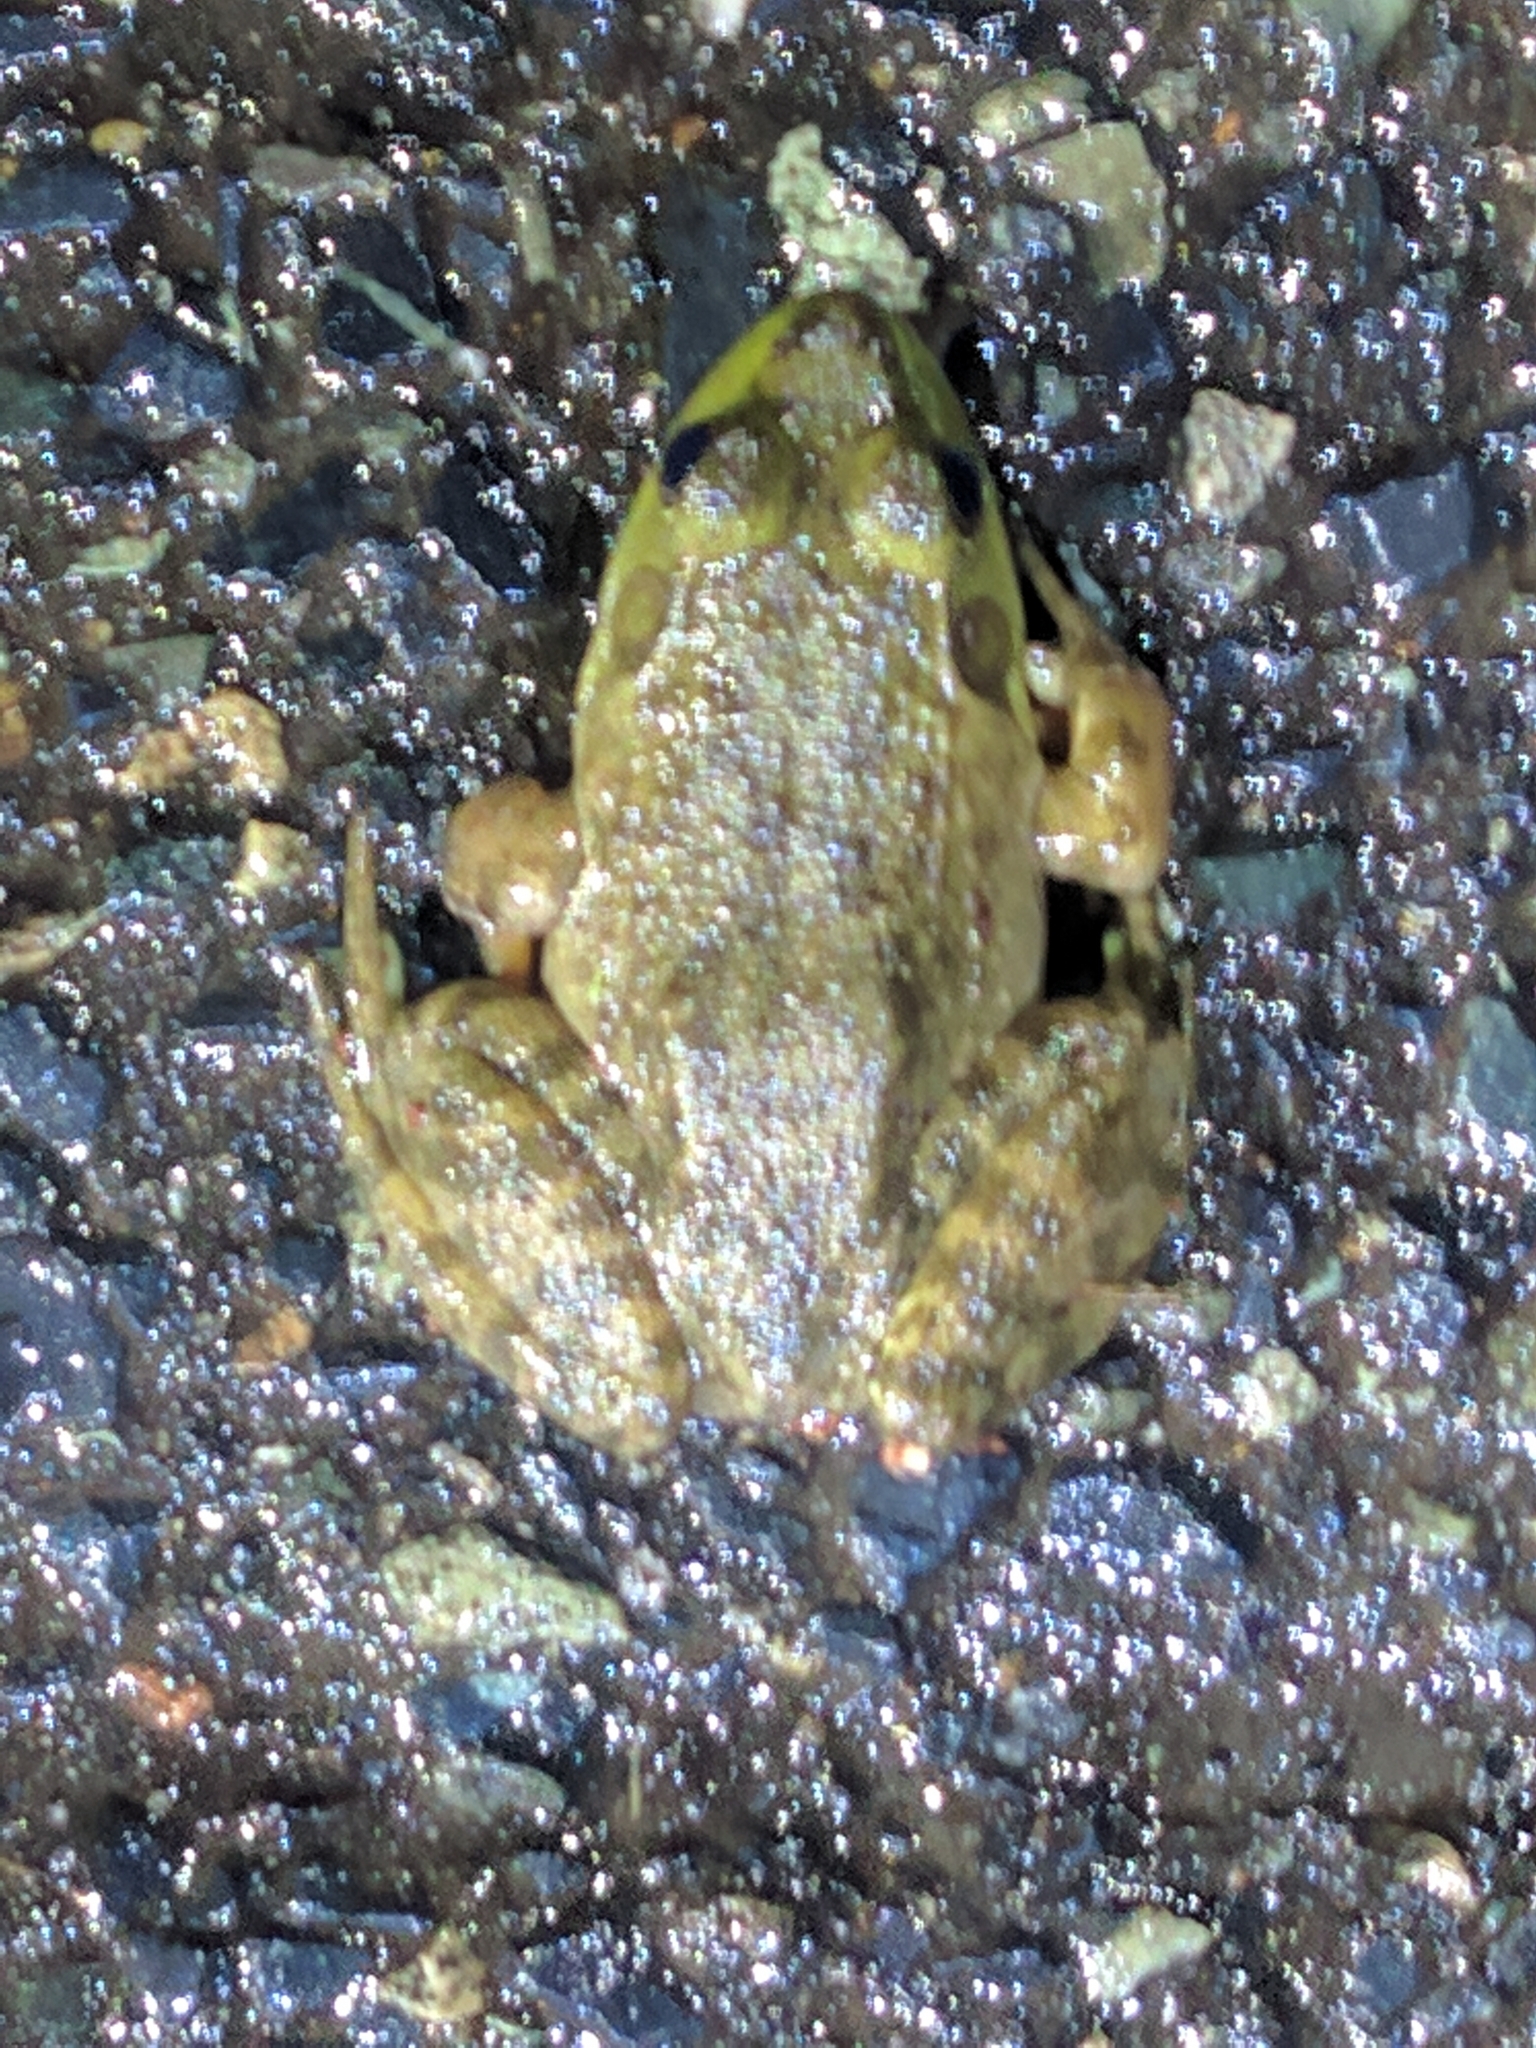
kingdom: Animalia
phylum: Chordata
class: Amphibia
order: Anura
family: Ranidae
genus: Lithobates
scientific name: Lithobates catesbeianus
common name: American bullfrog
